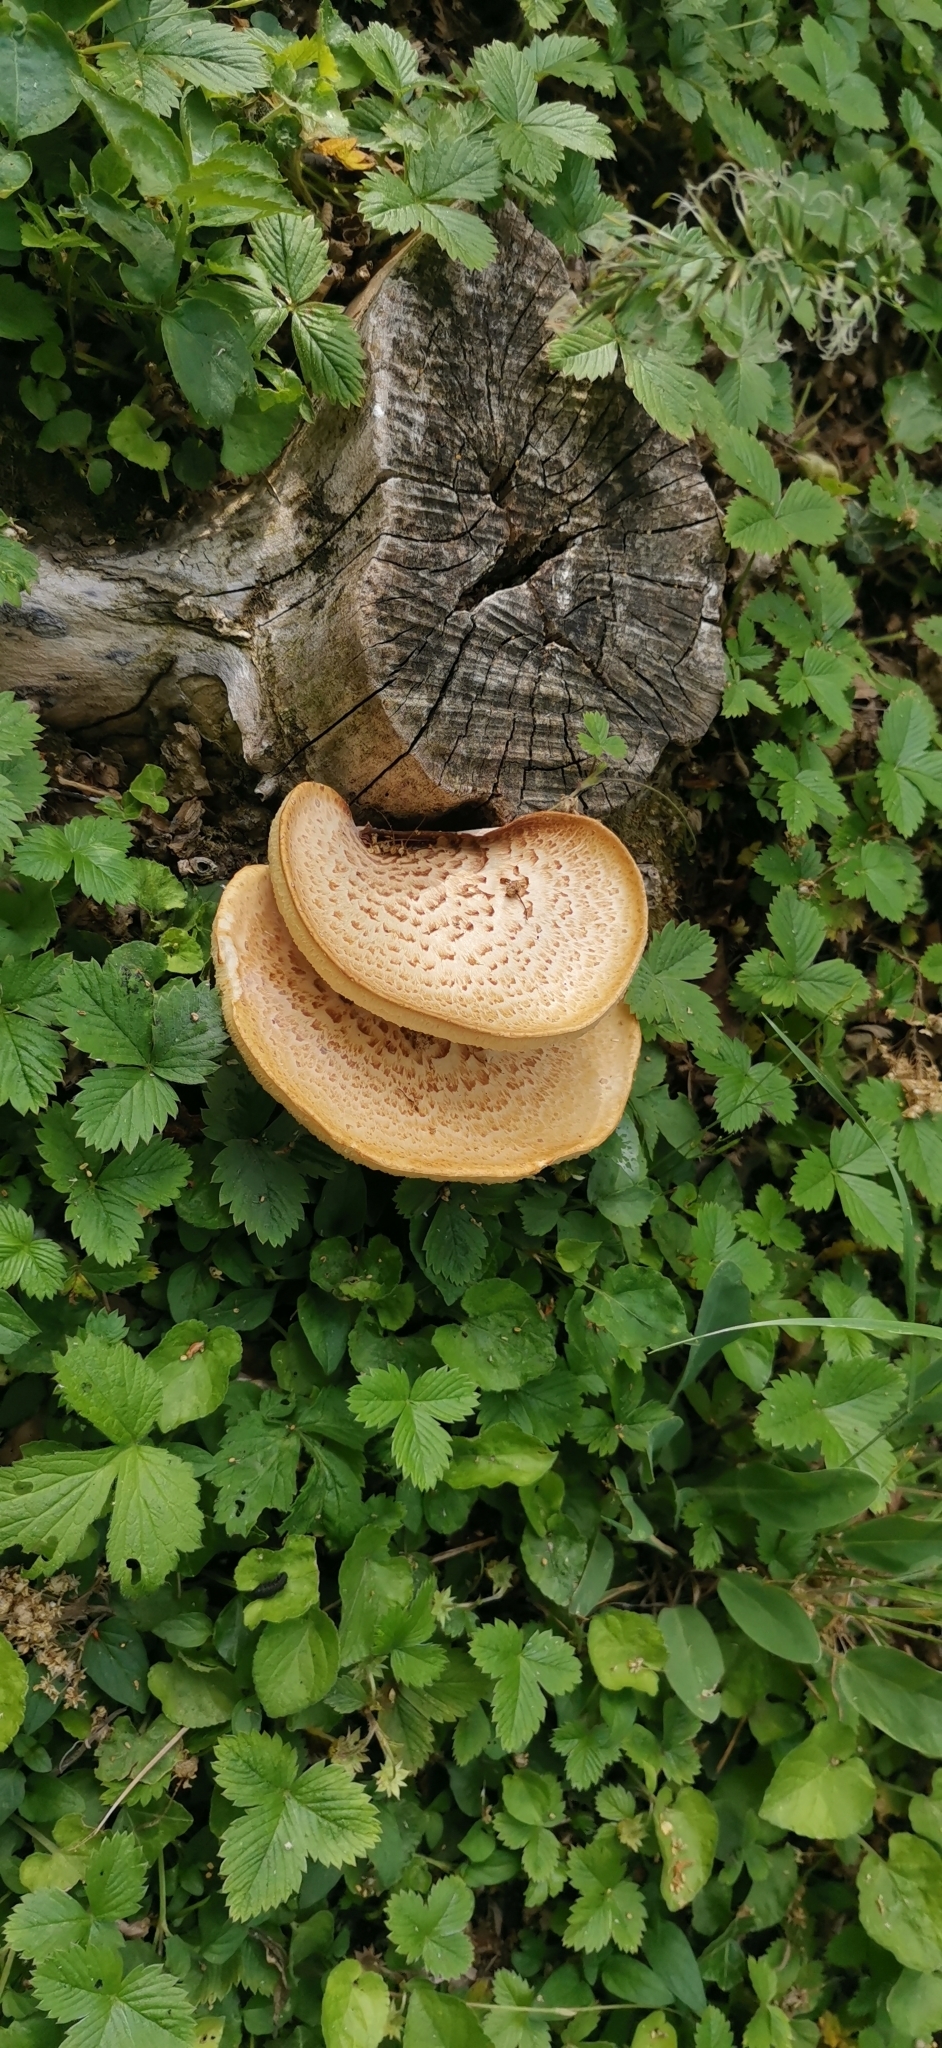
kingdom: Fungi
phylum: Basidiomycota
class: Agaricomycetes
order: Polyporales
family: Polyporaceae
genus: Cerioporus
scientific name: Cerioporus squamosus
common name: Dryad's saddle
